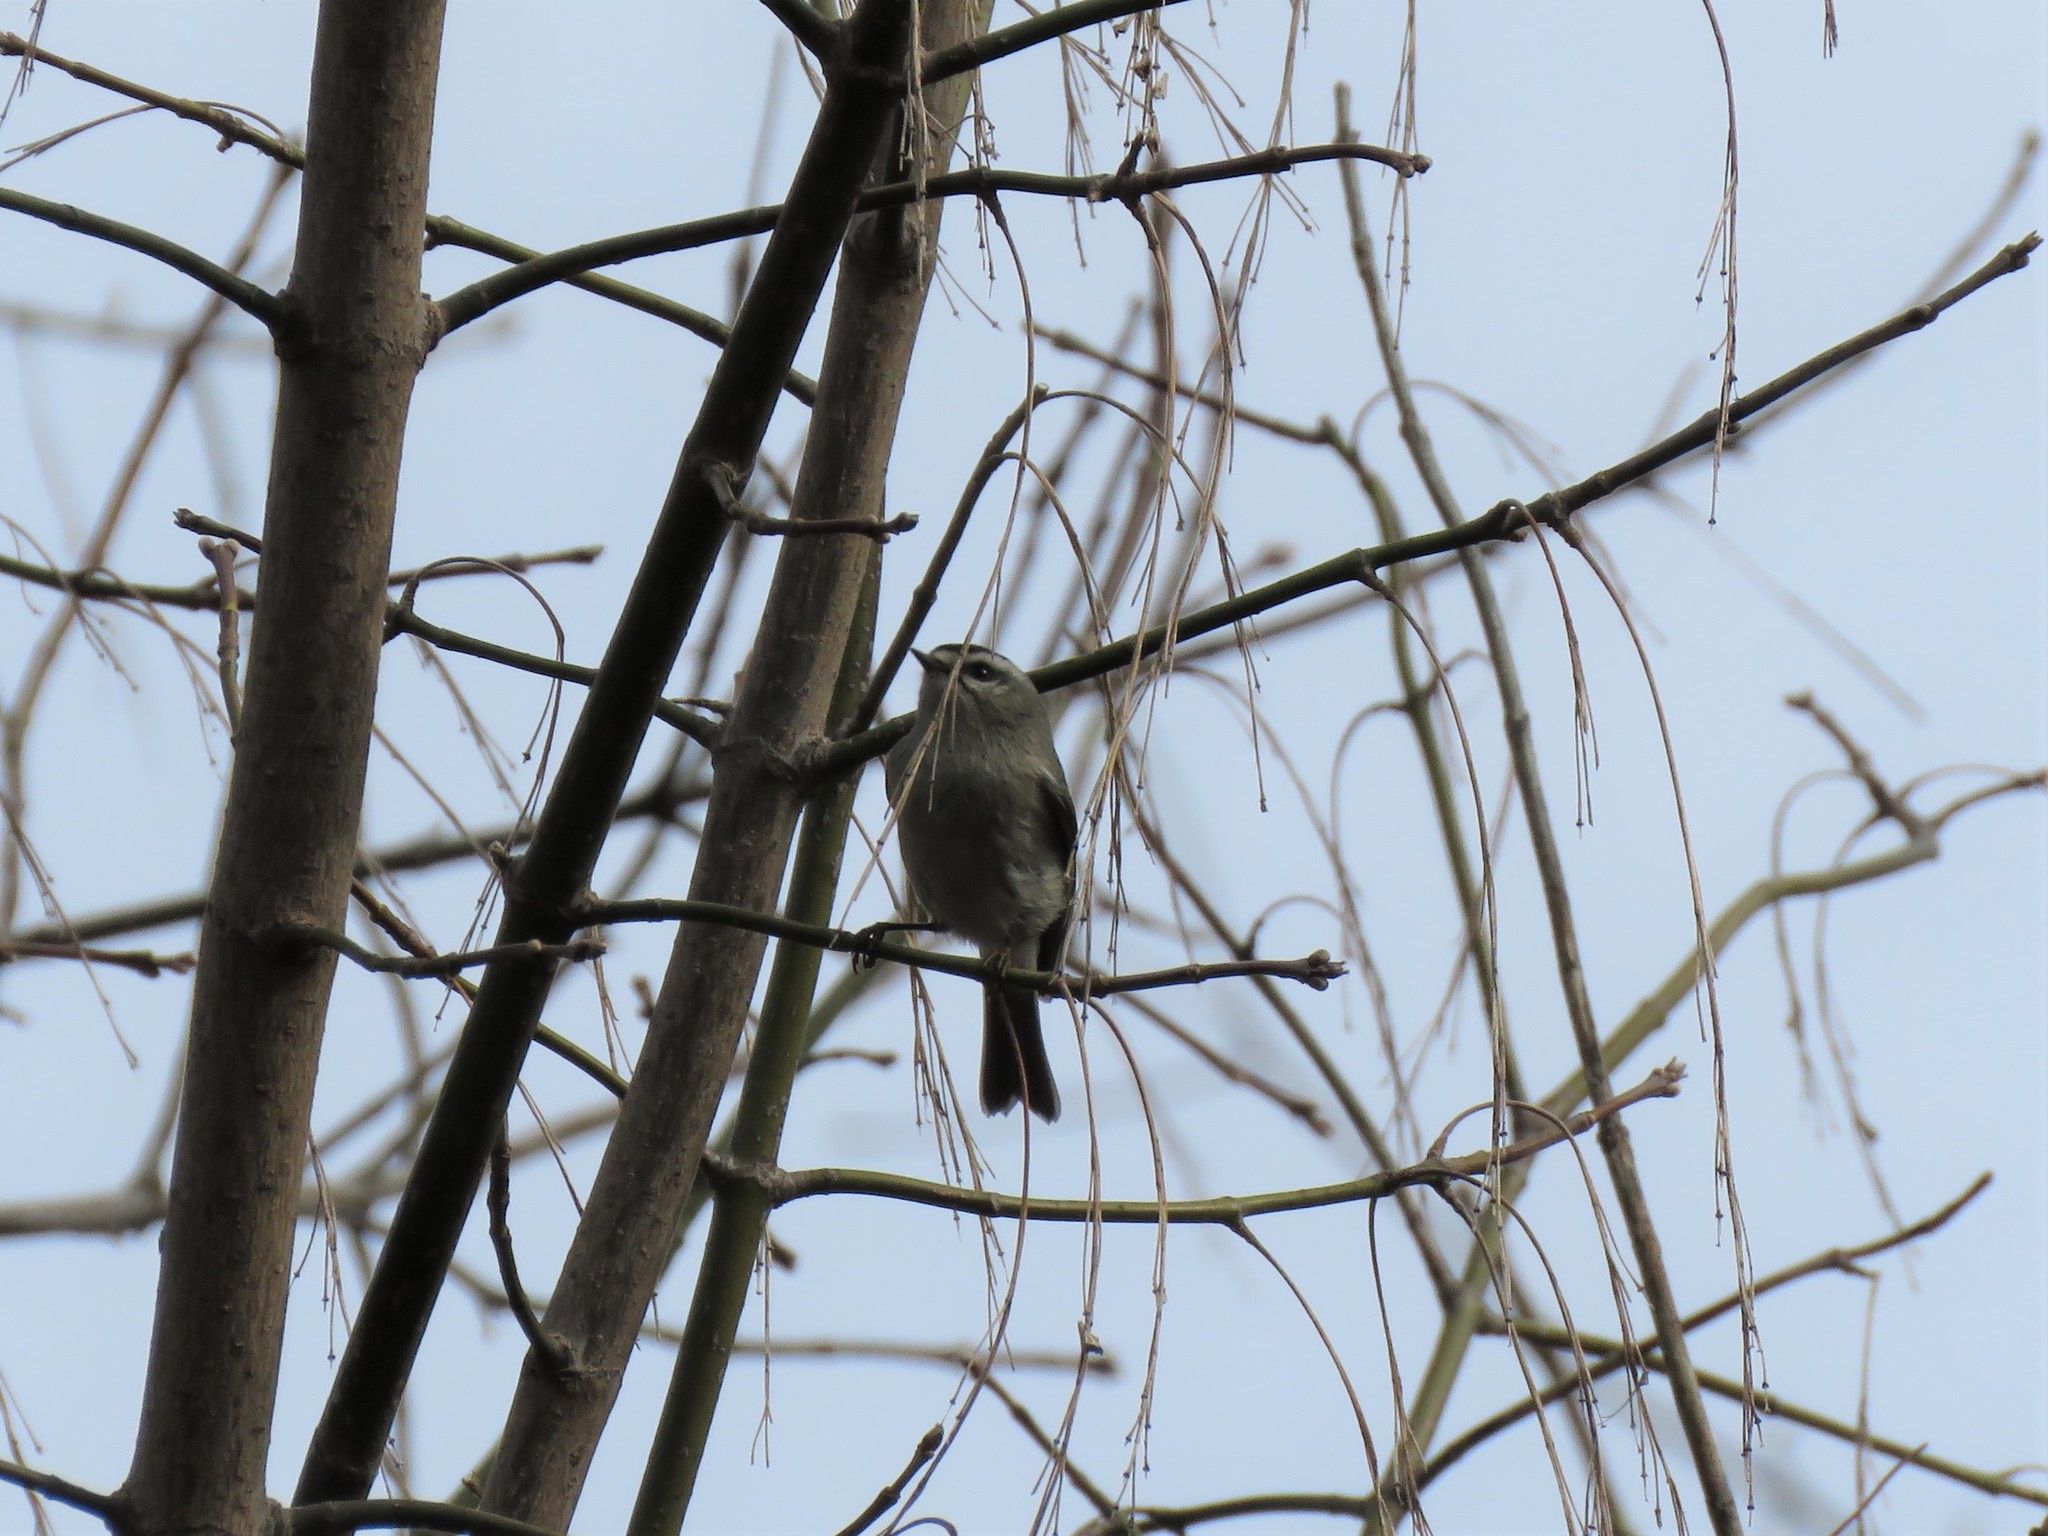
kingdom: Animalia
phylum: Chordata
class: Aves
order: Passeriformes
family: Regulidae
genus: Regulus
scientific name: Regulus satrapa
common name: Golden-crowned kinglet
